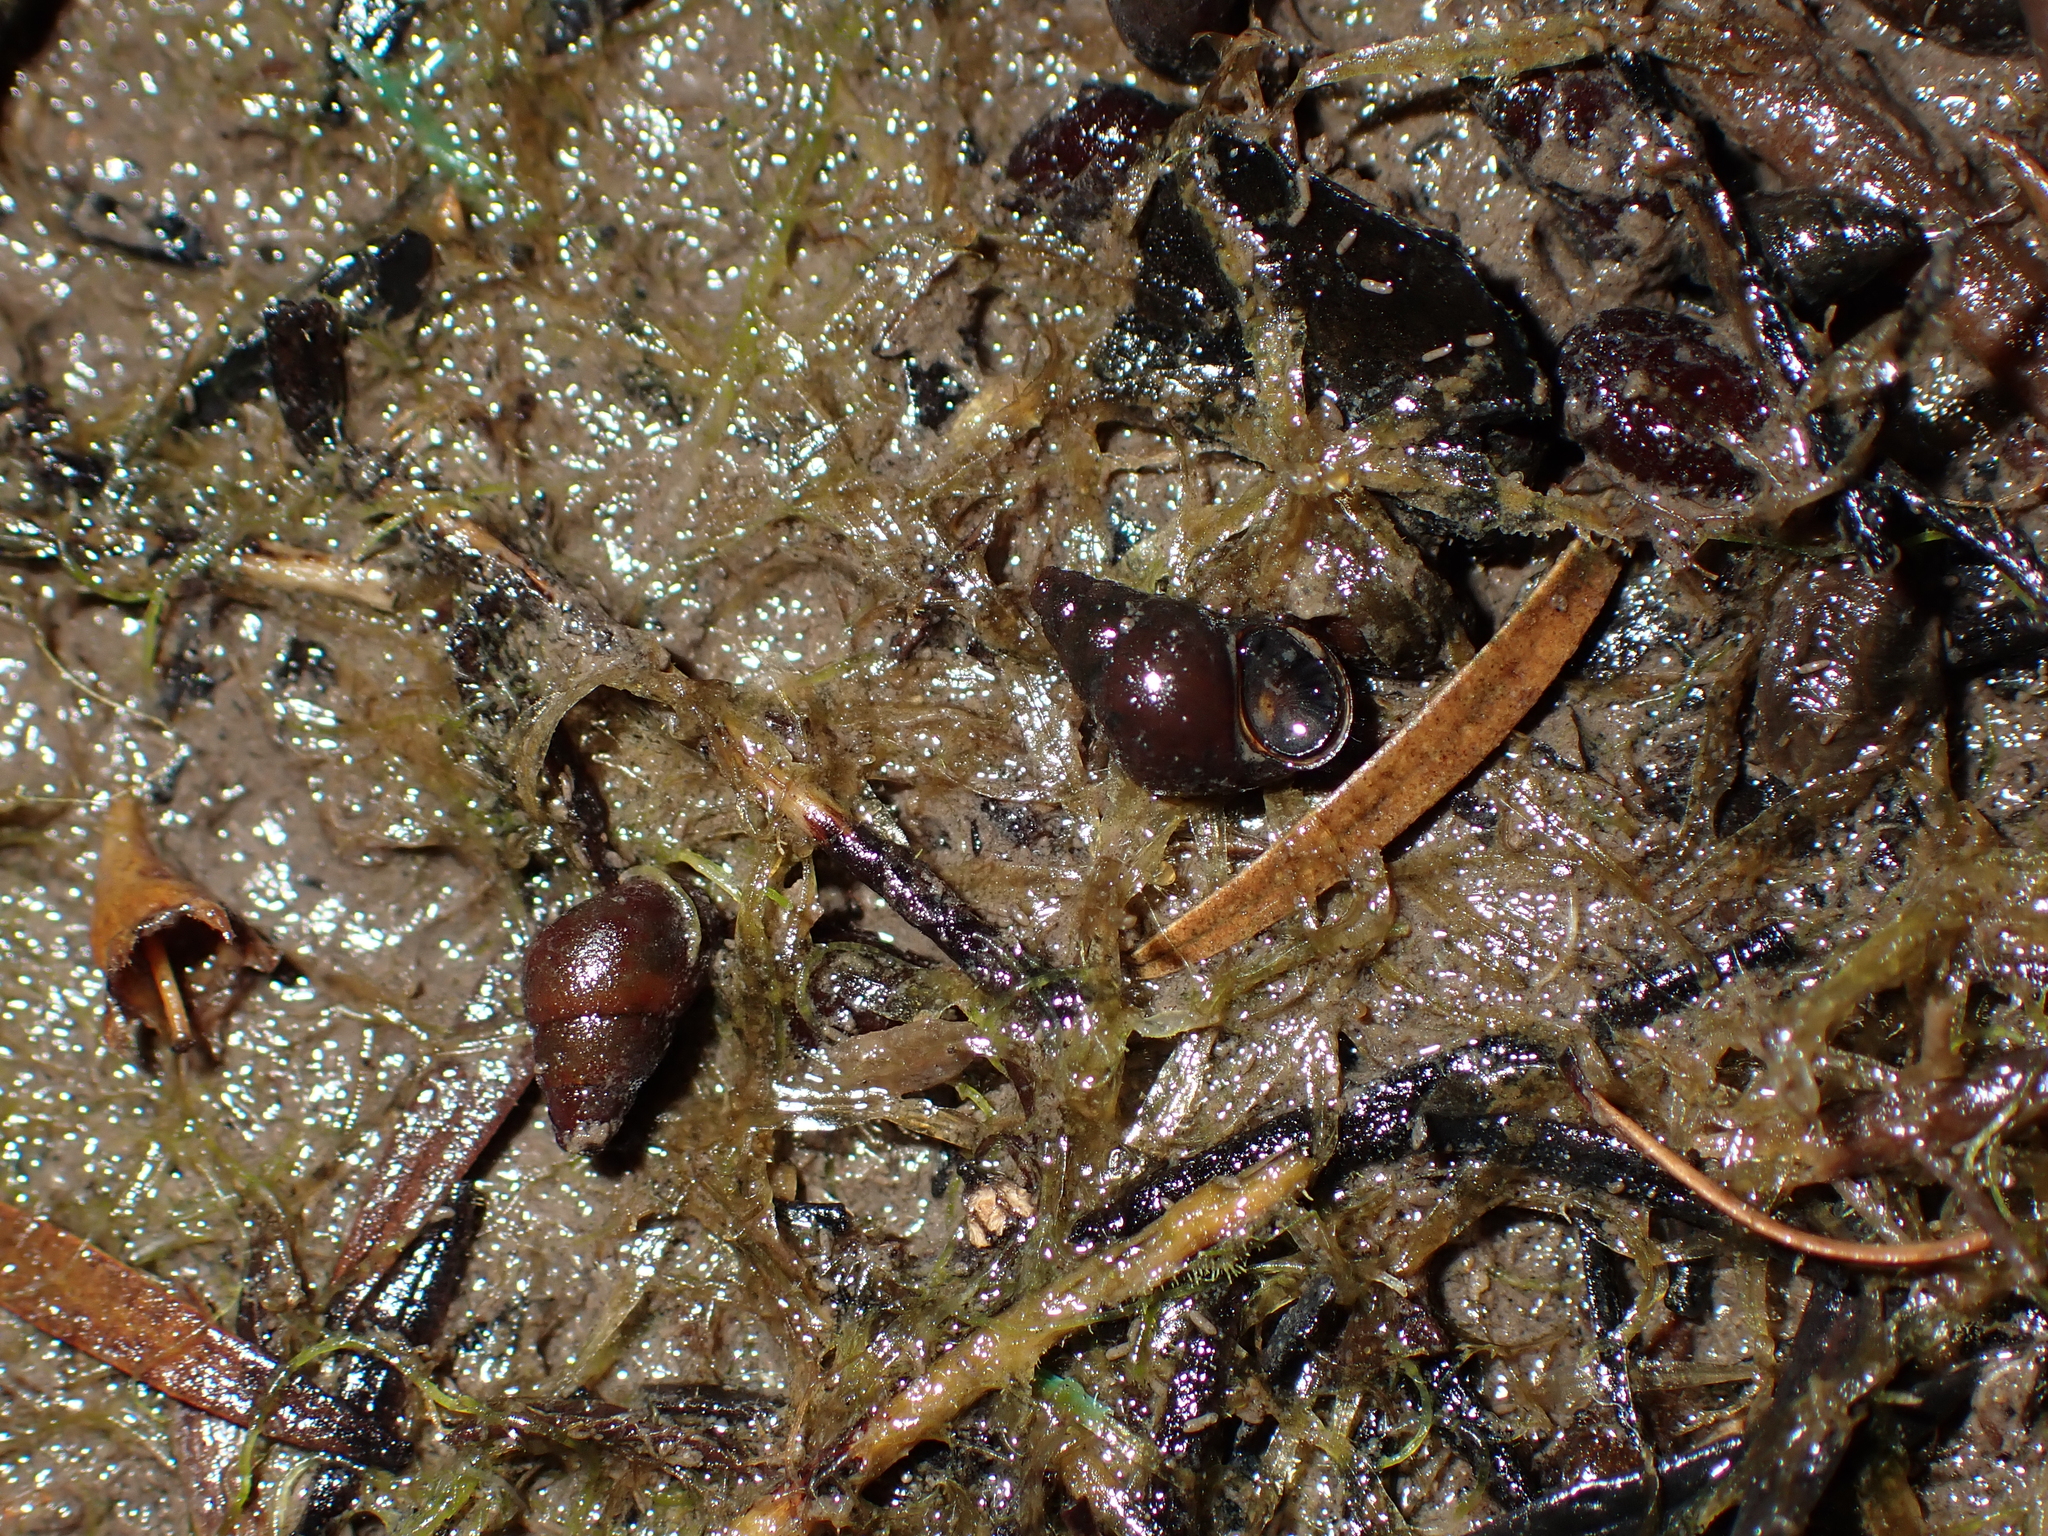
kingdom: Animalia
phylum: Mollusca
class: Gastropoda
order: Littorinimorpha
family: Tateidae
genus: Potamopyrgus
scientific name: Potamopyrgus estuarinus
